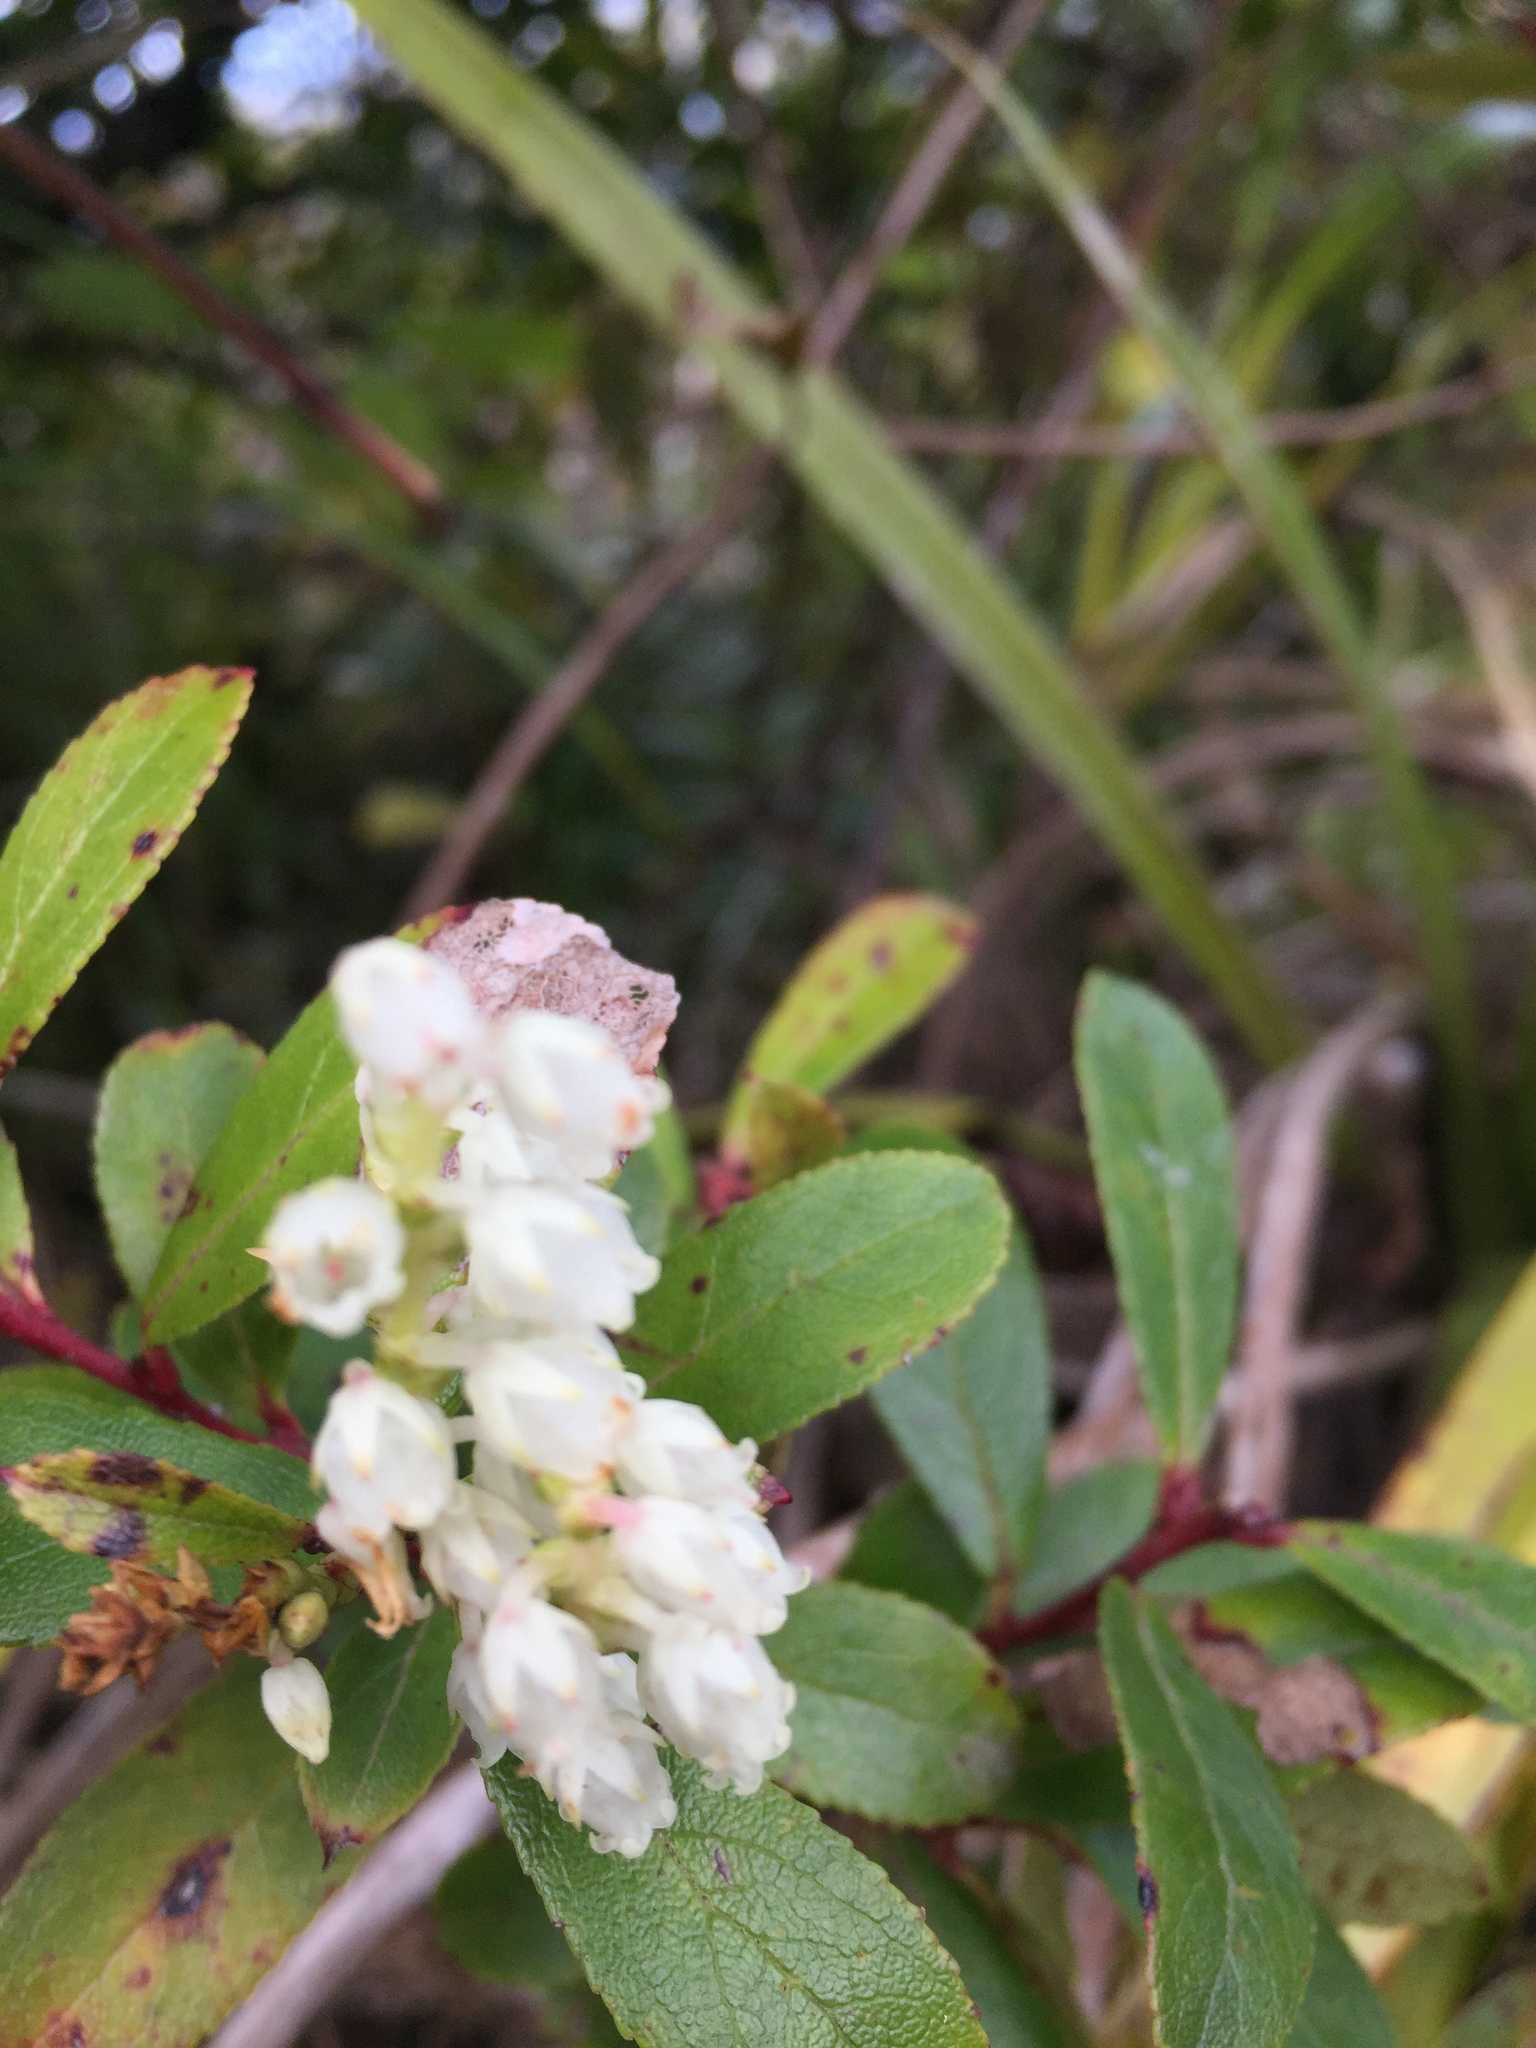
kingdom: Plantae
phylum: Tracheophyta
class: Magnoliopsida
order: Ericales
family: Ericaceae
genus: Gaultheria
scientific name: Gaultheria paniculata
